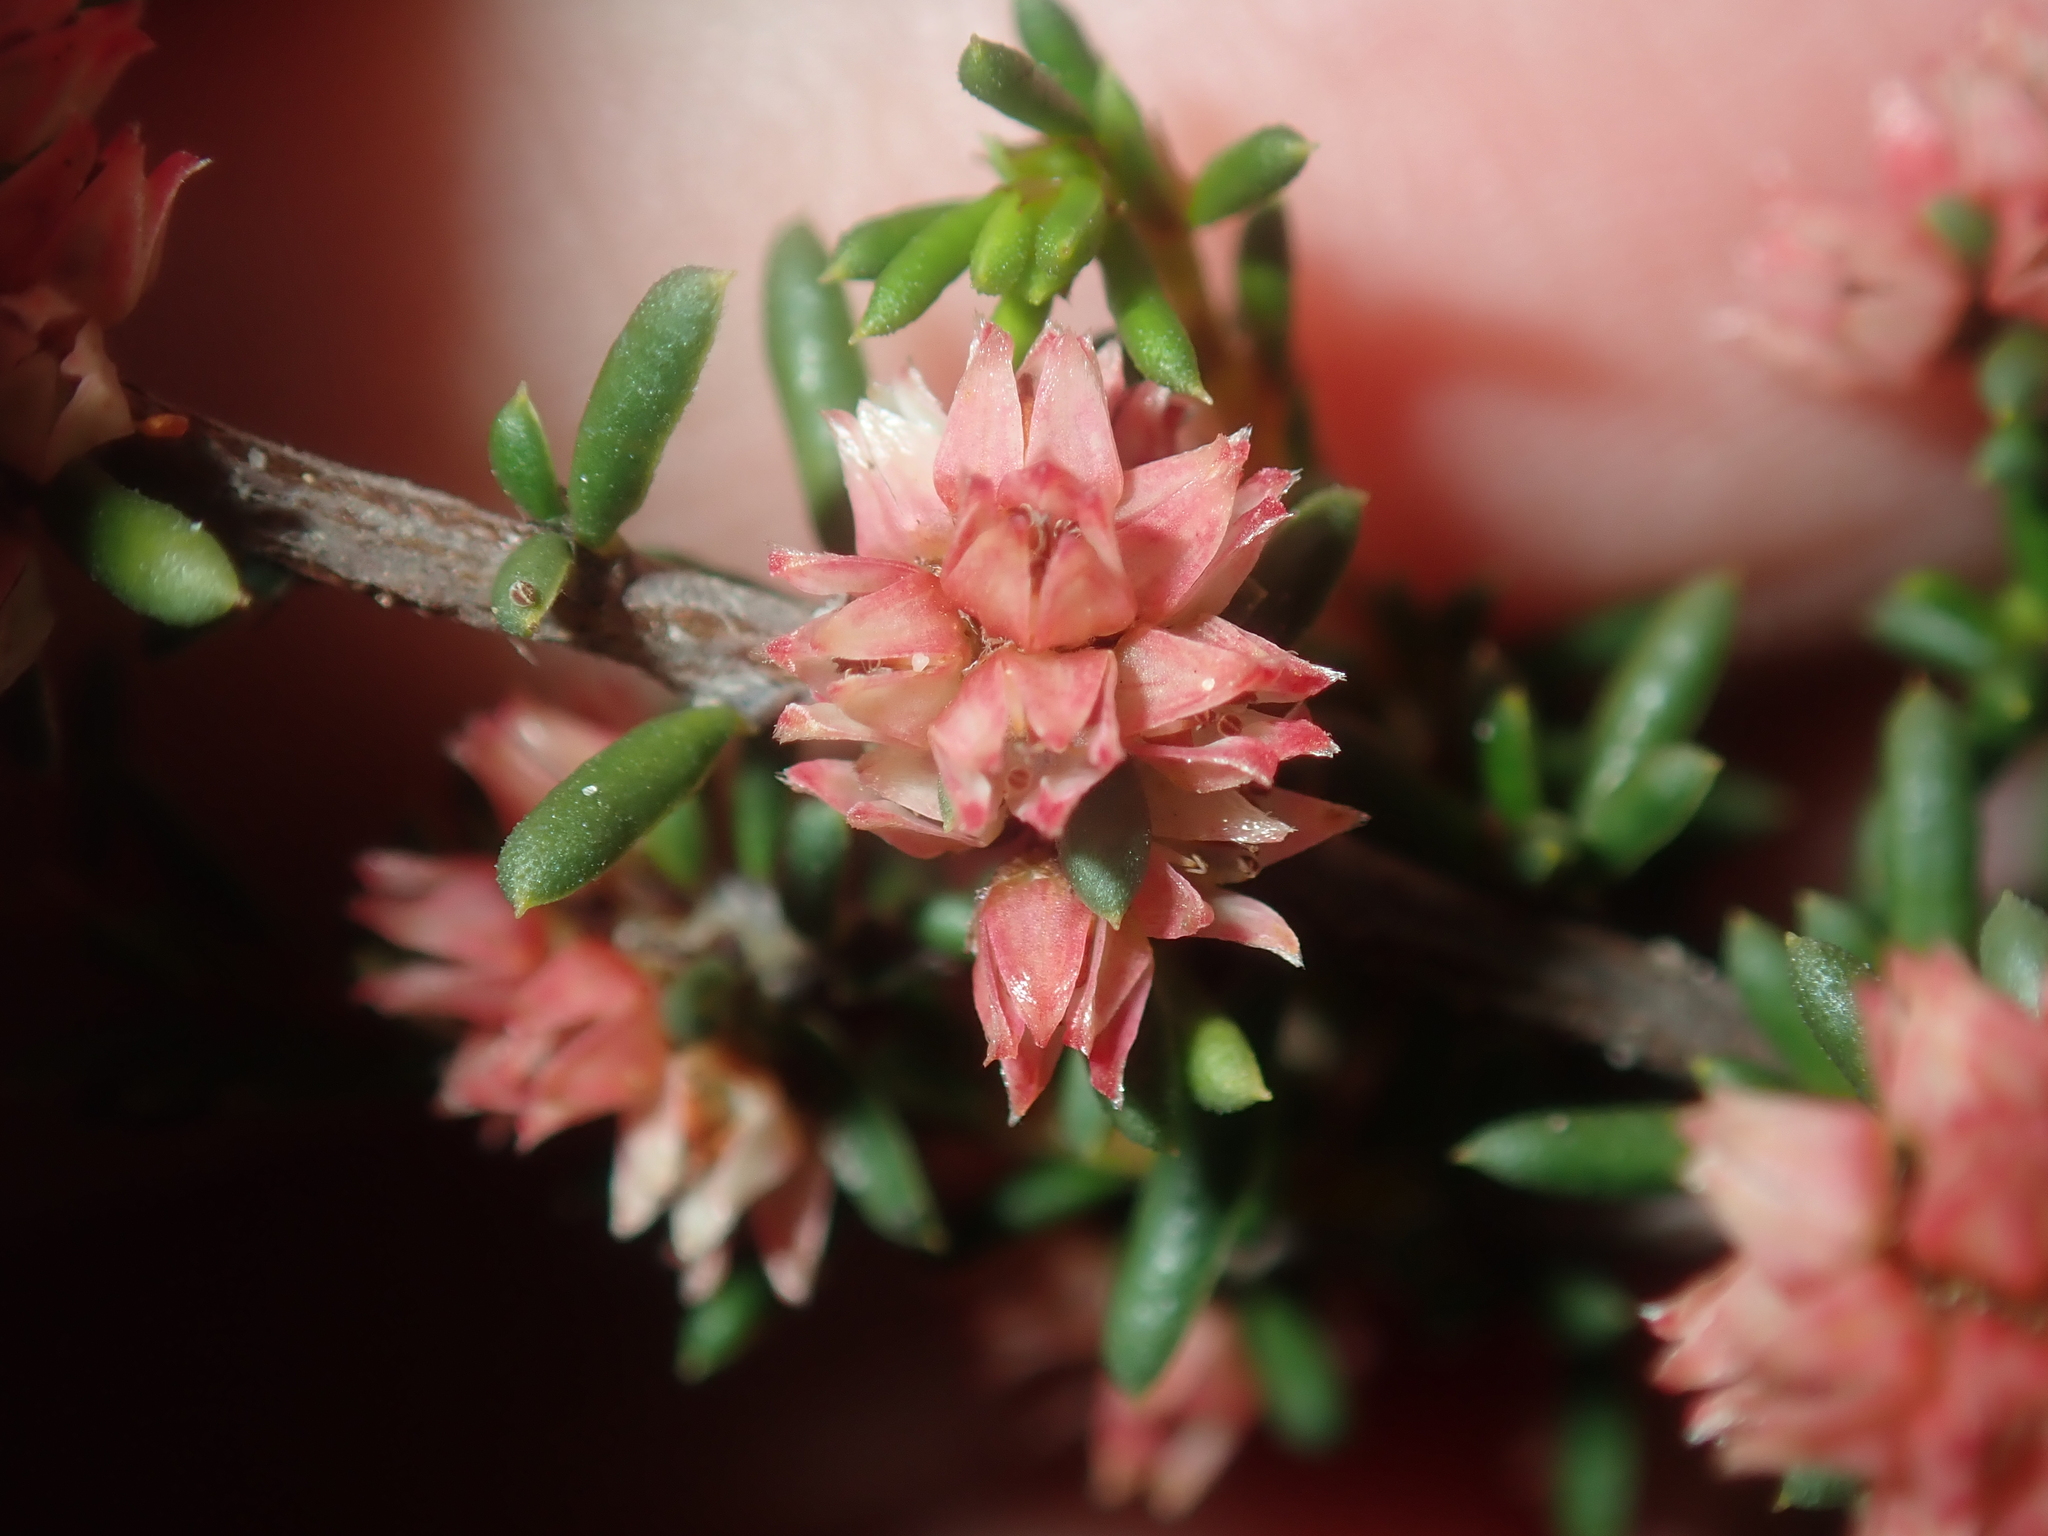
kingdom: Plantae
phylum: Tracheophyta
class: Magnoliopsida
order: Rosales
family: Rhamnaceae
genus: Cryptandra
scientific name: Cryptandra myriantha
